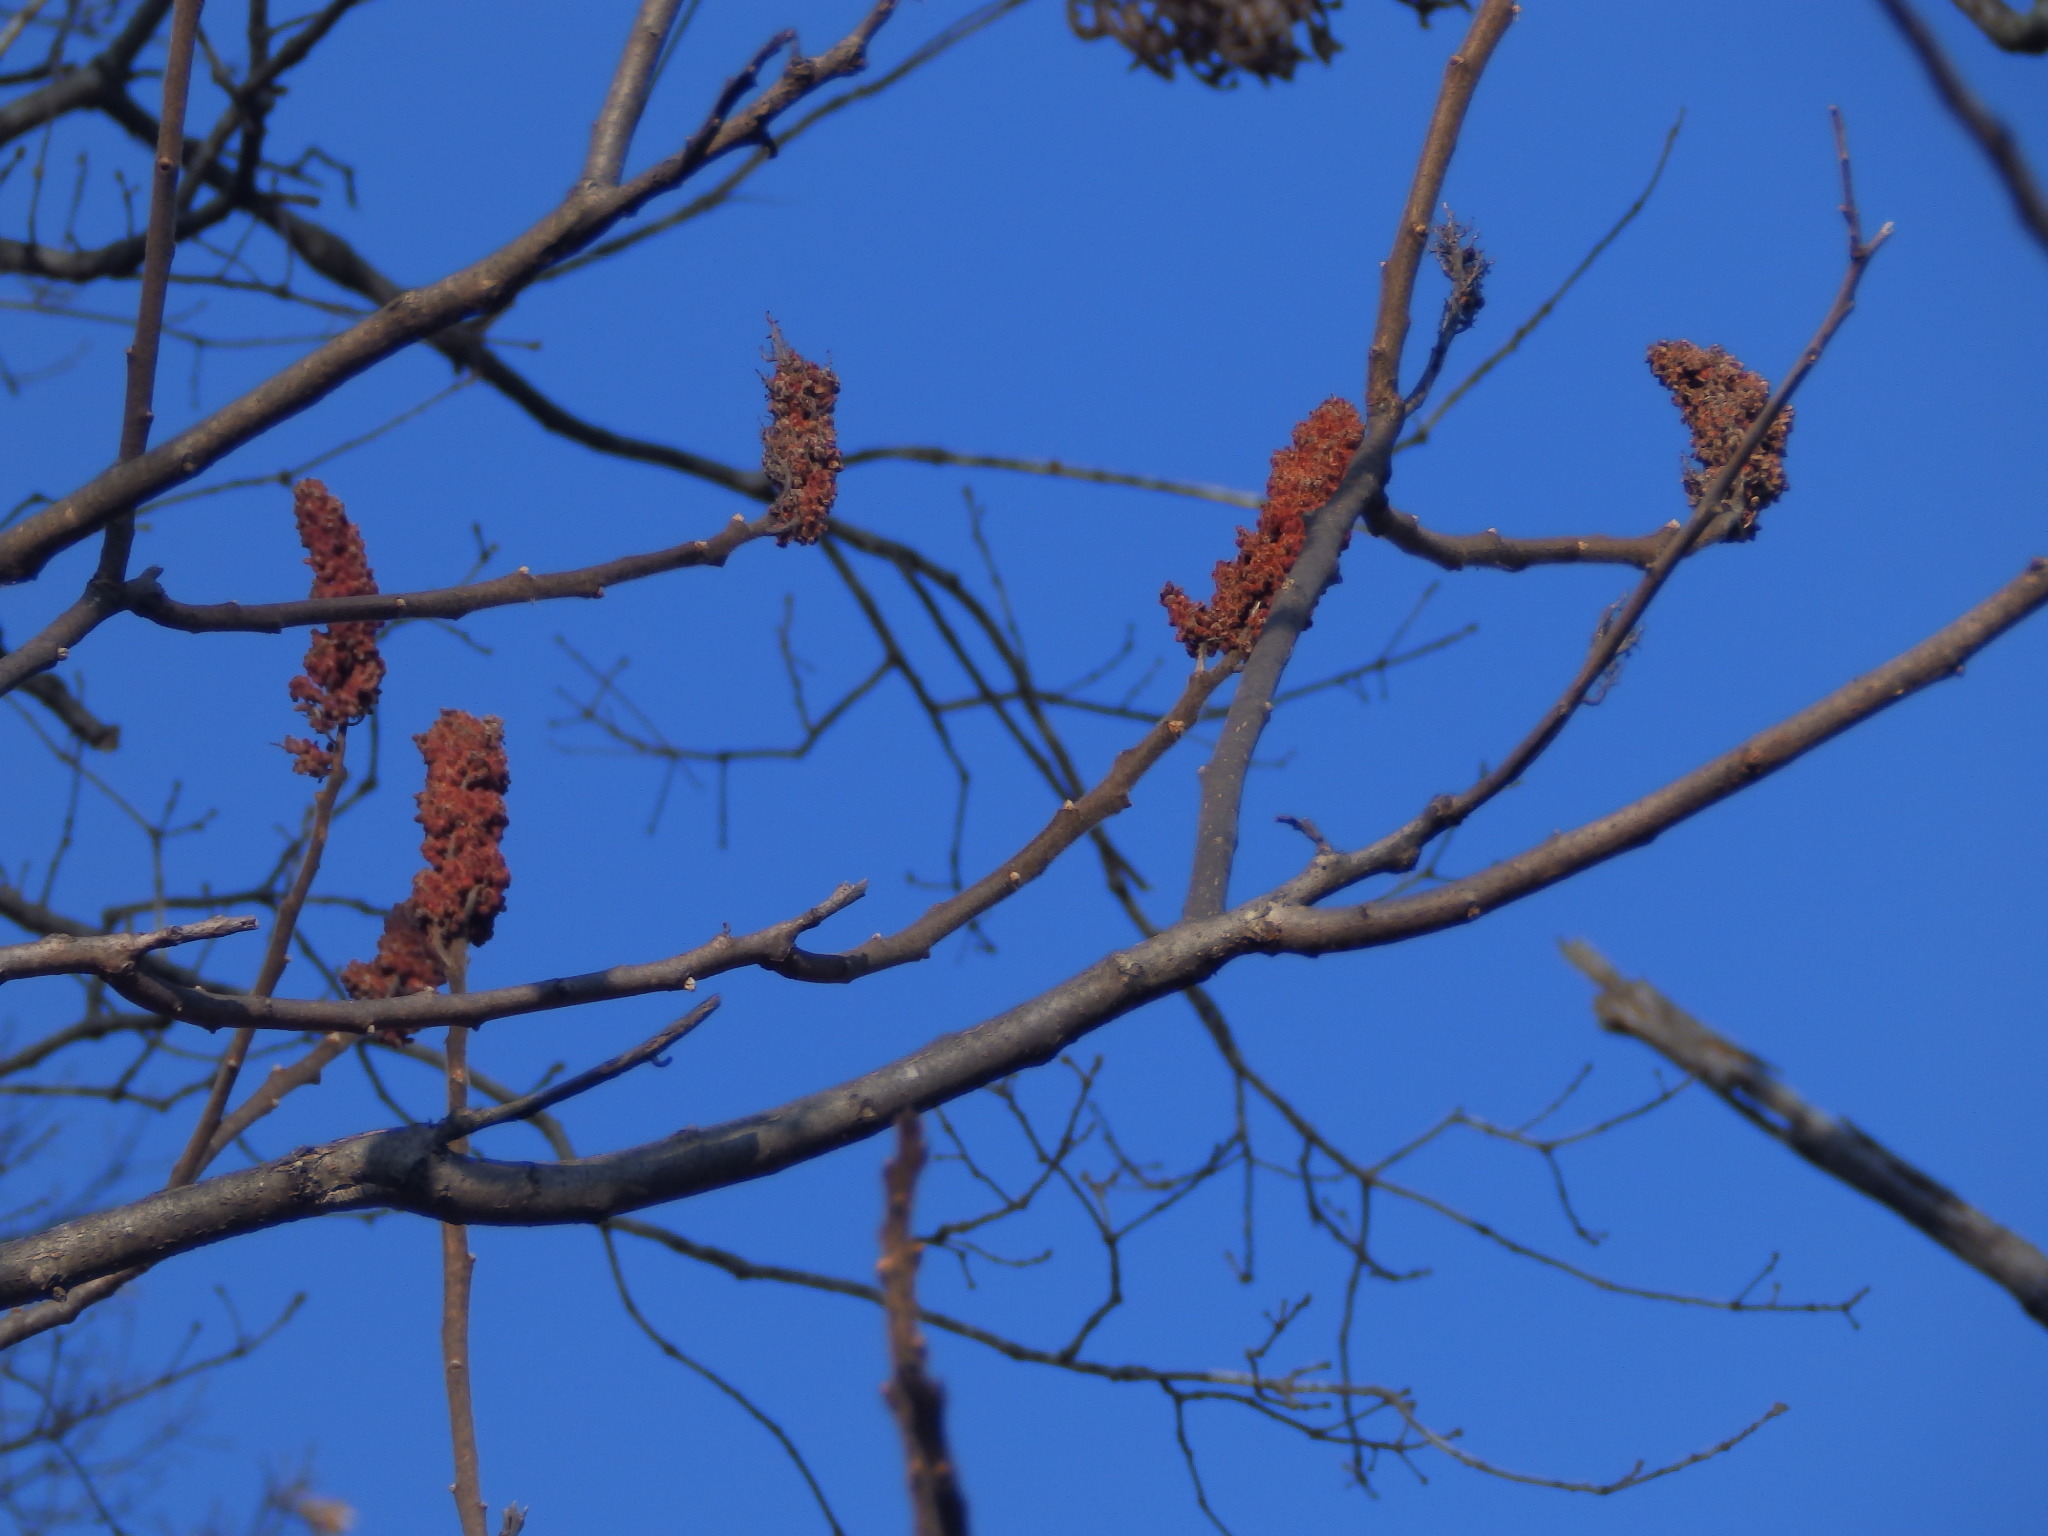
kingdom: Plantae
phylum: Tracheophyta
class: Magnoliopsida
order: Sapindales
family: Anacardiaceae
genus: Rhus
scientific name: Rhus typhina
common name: Staghorn sumac
